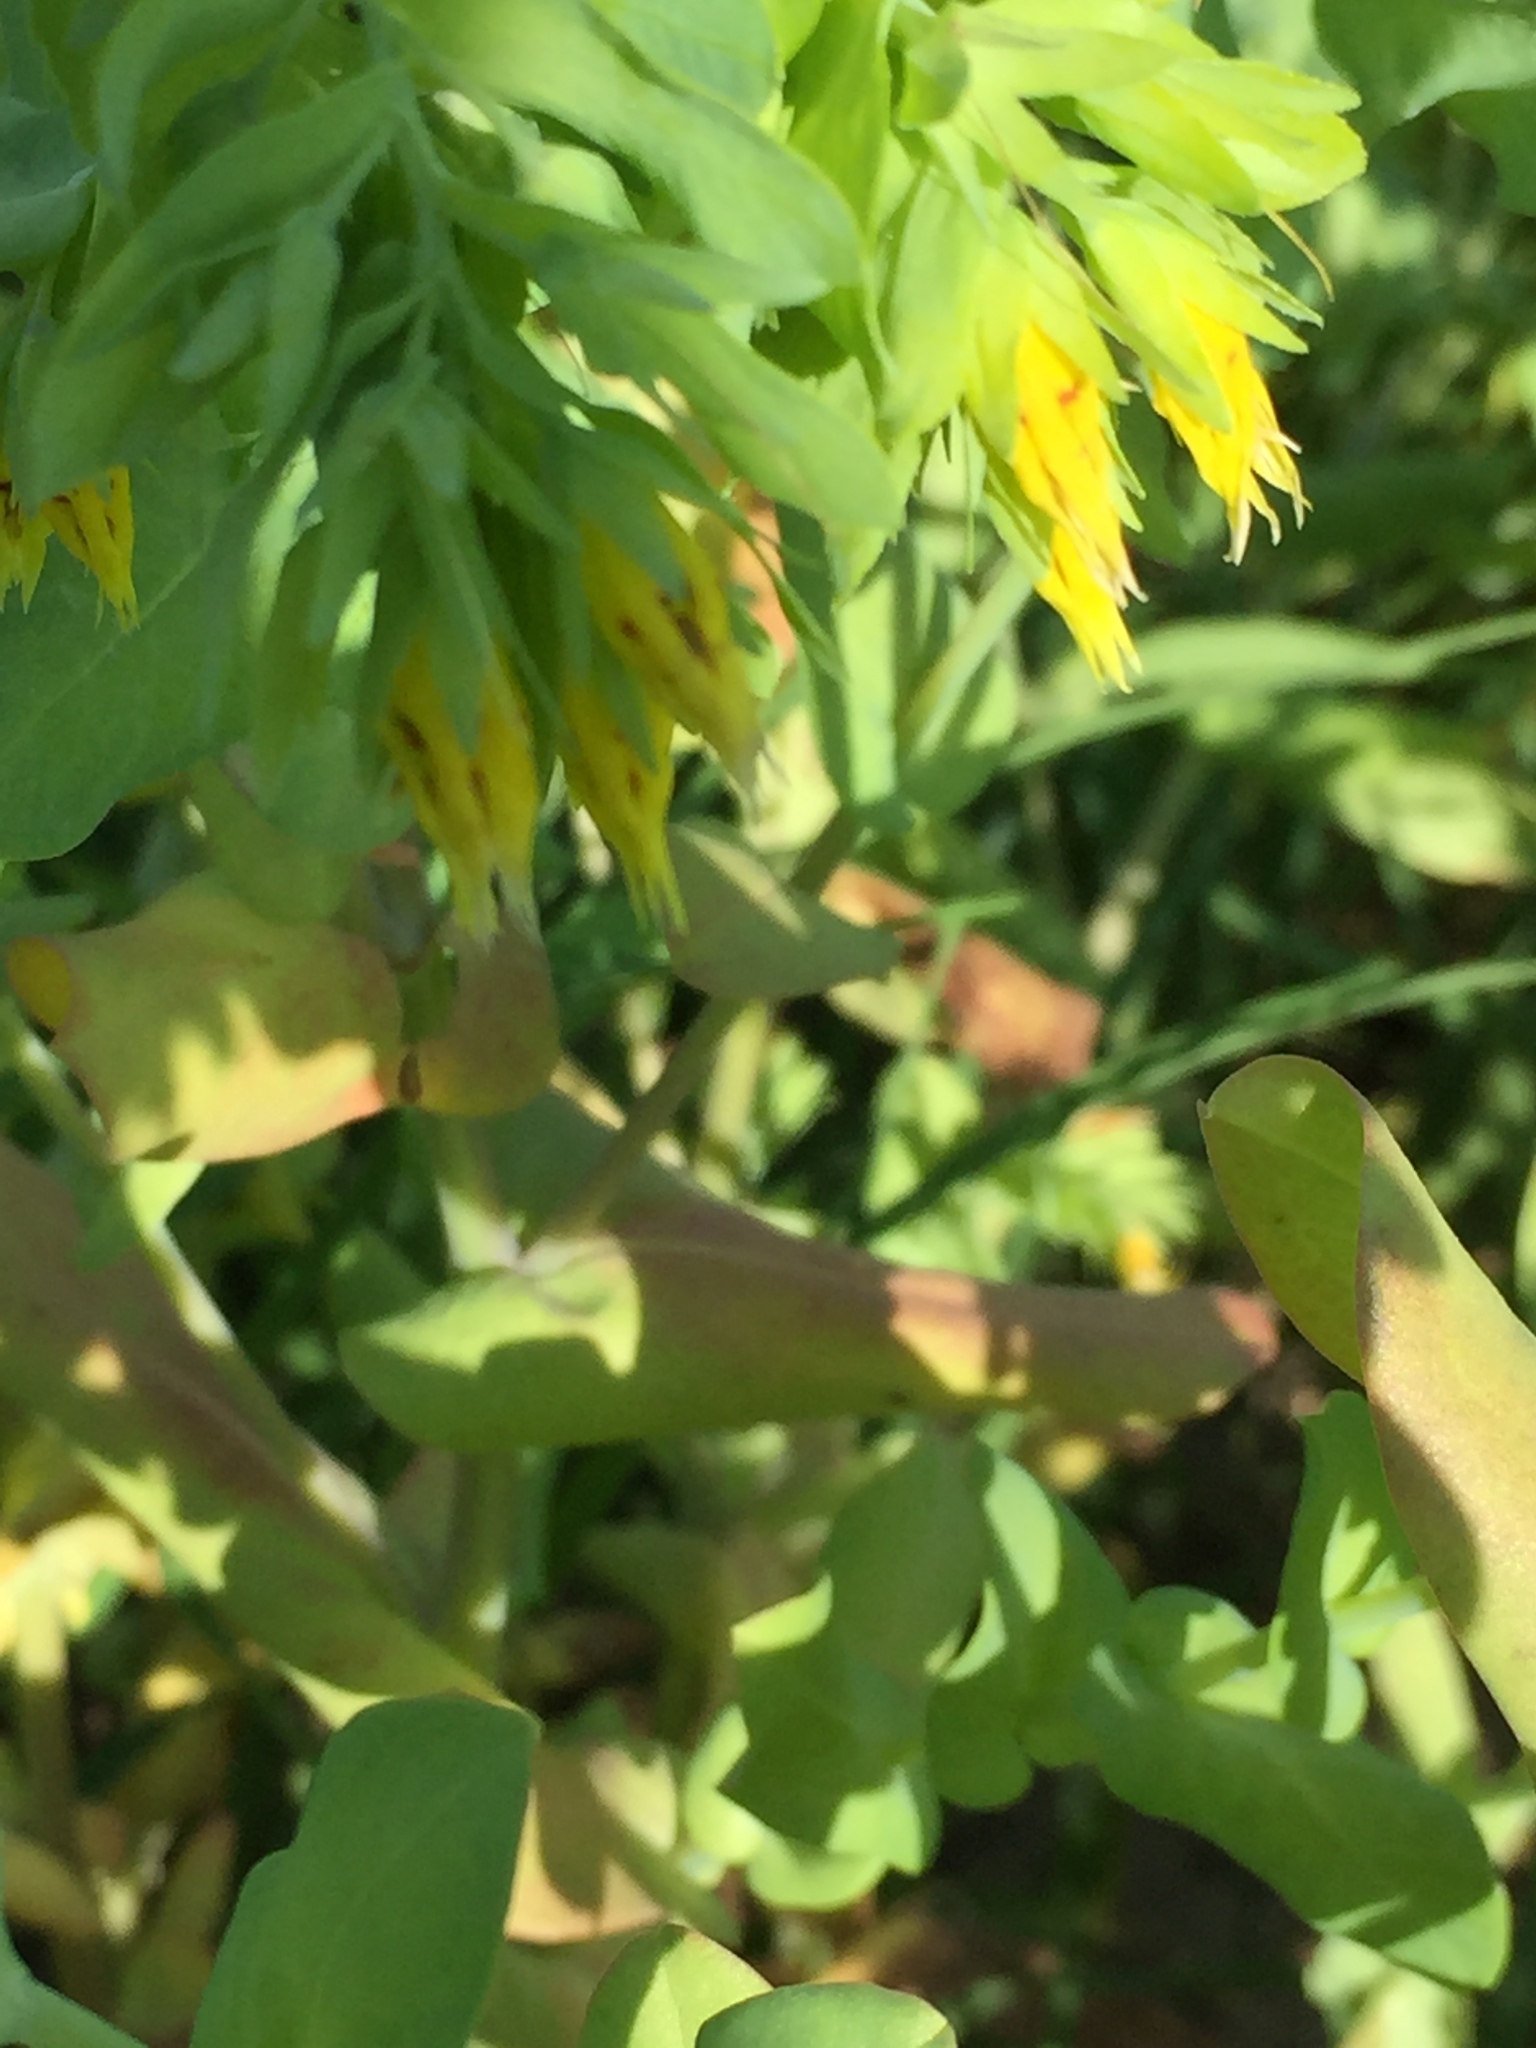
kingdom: Plantae
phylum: Tracheophyta
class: Magnoliopsida
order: Boraginales
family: Boraginaceae
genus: Cerinthe
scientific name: Cerinthe minor
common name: Lesser honeywort
